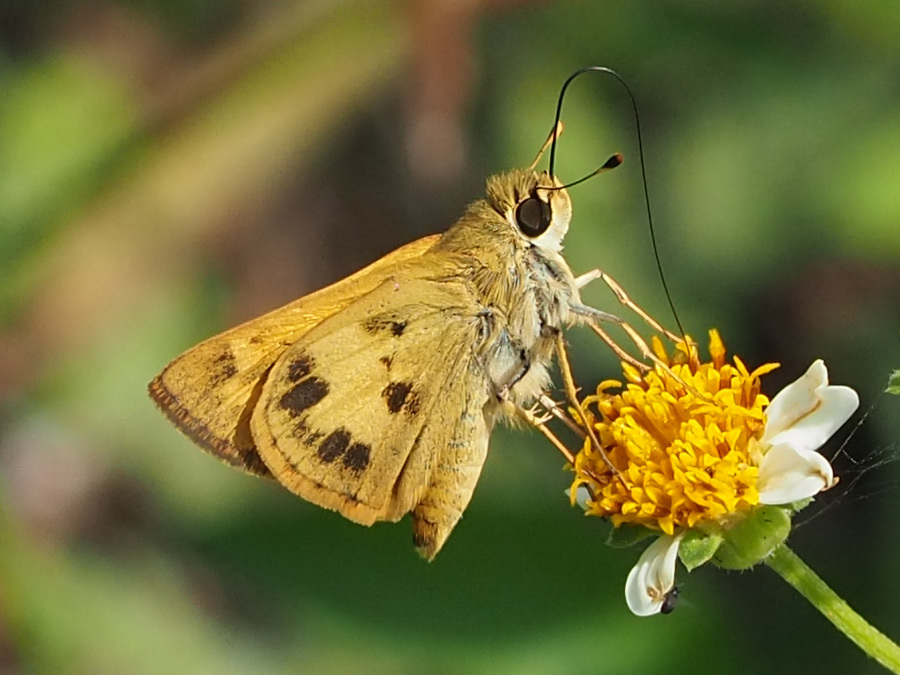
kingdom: Animalia
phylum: Arthropoda
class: Insecta
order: Lepidoptera
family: Hesperiidae
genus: Polites
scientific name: Polites vibex
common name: Whirlabout
